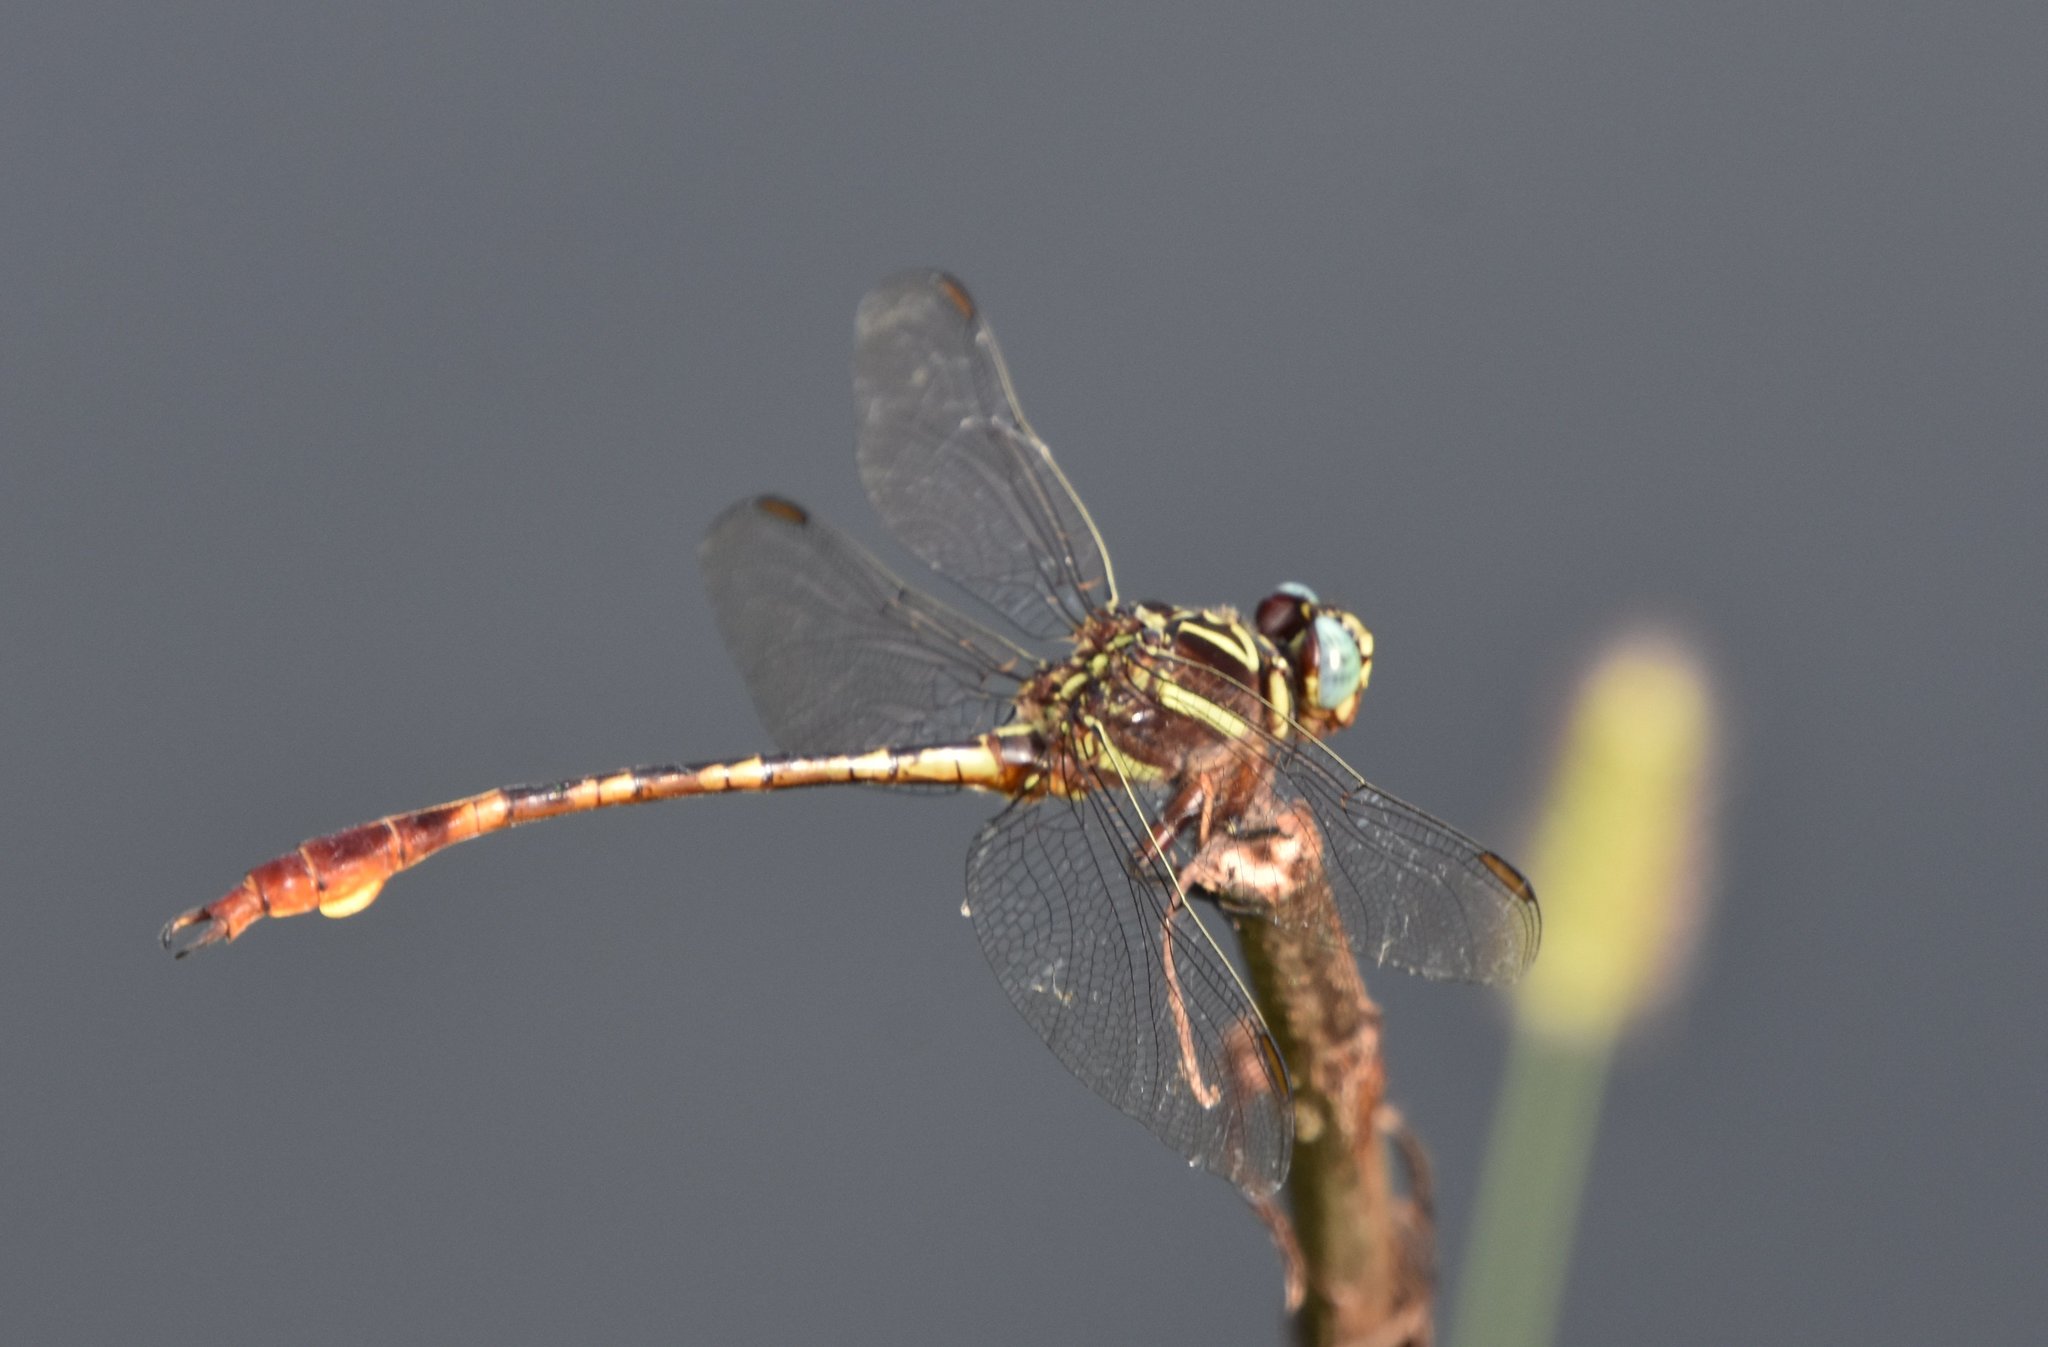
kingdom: Animalia
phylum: Arthropoda
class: Insecta
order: Odonata
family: Gomphidae
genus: Aphylla
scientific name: Aphylla williamsoni
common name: Two-striped forceptail
